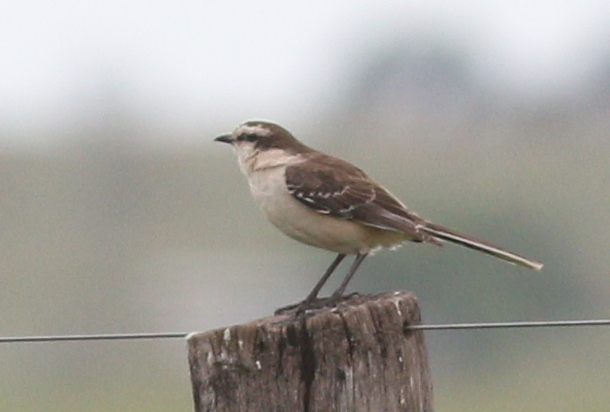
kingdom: Animalia
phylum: Chordata
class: Aves
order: Passeriformes
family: Mimidae
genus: Mimus
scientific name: Mimus saturninus
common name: Chalk-browed mockingbird
